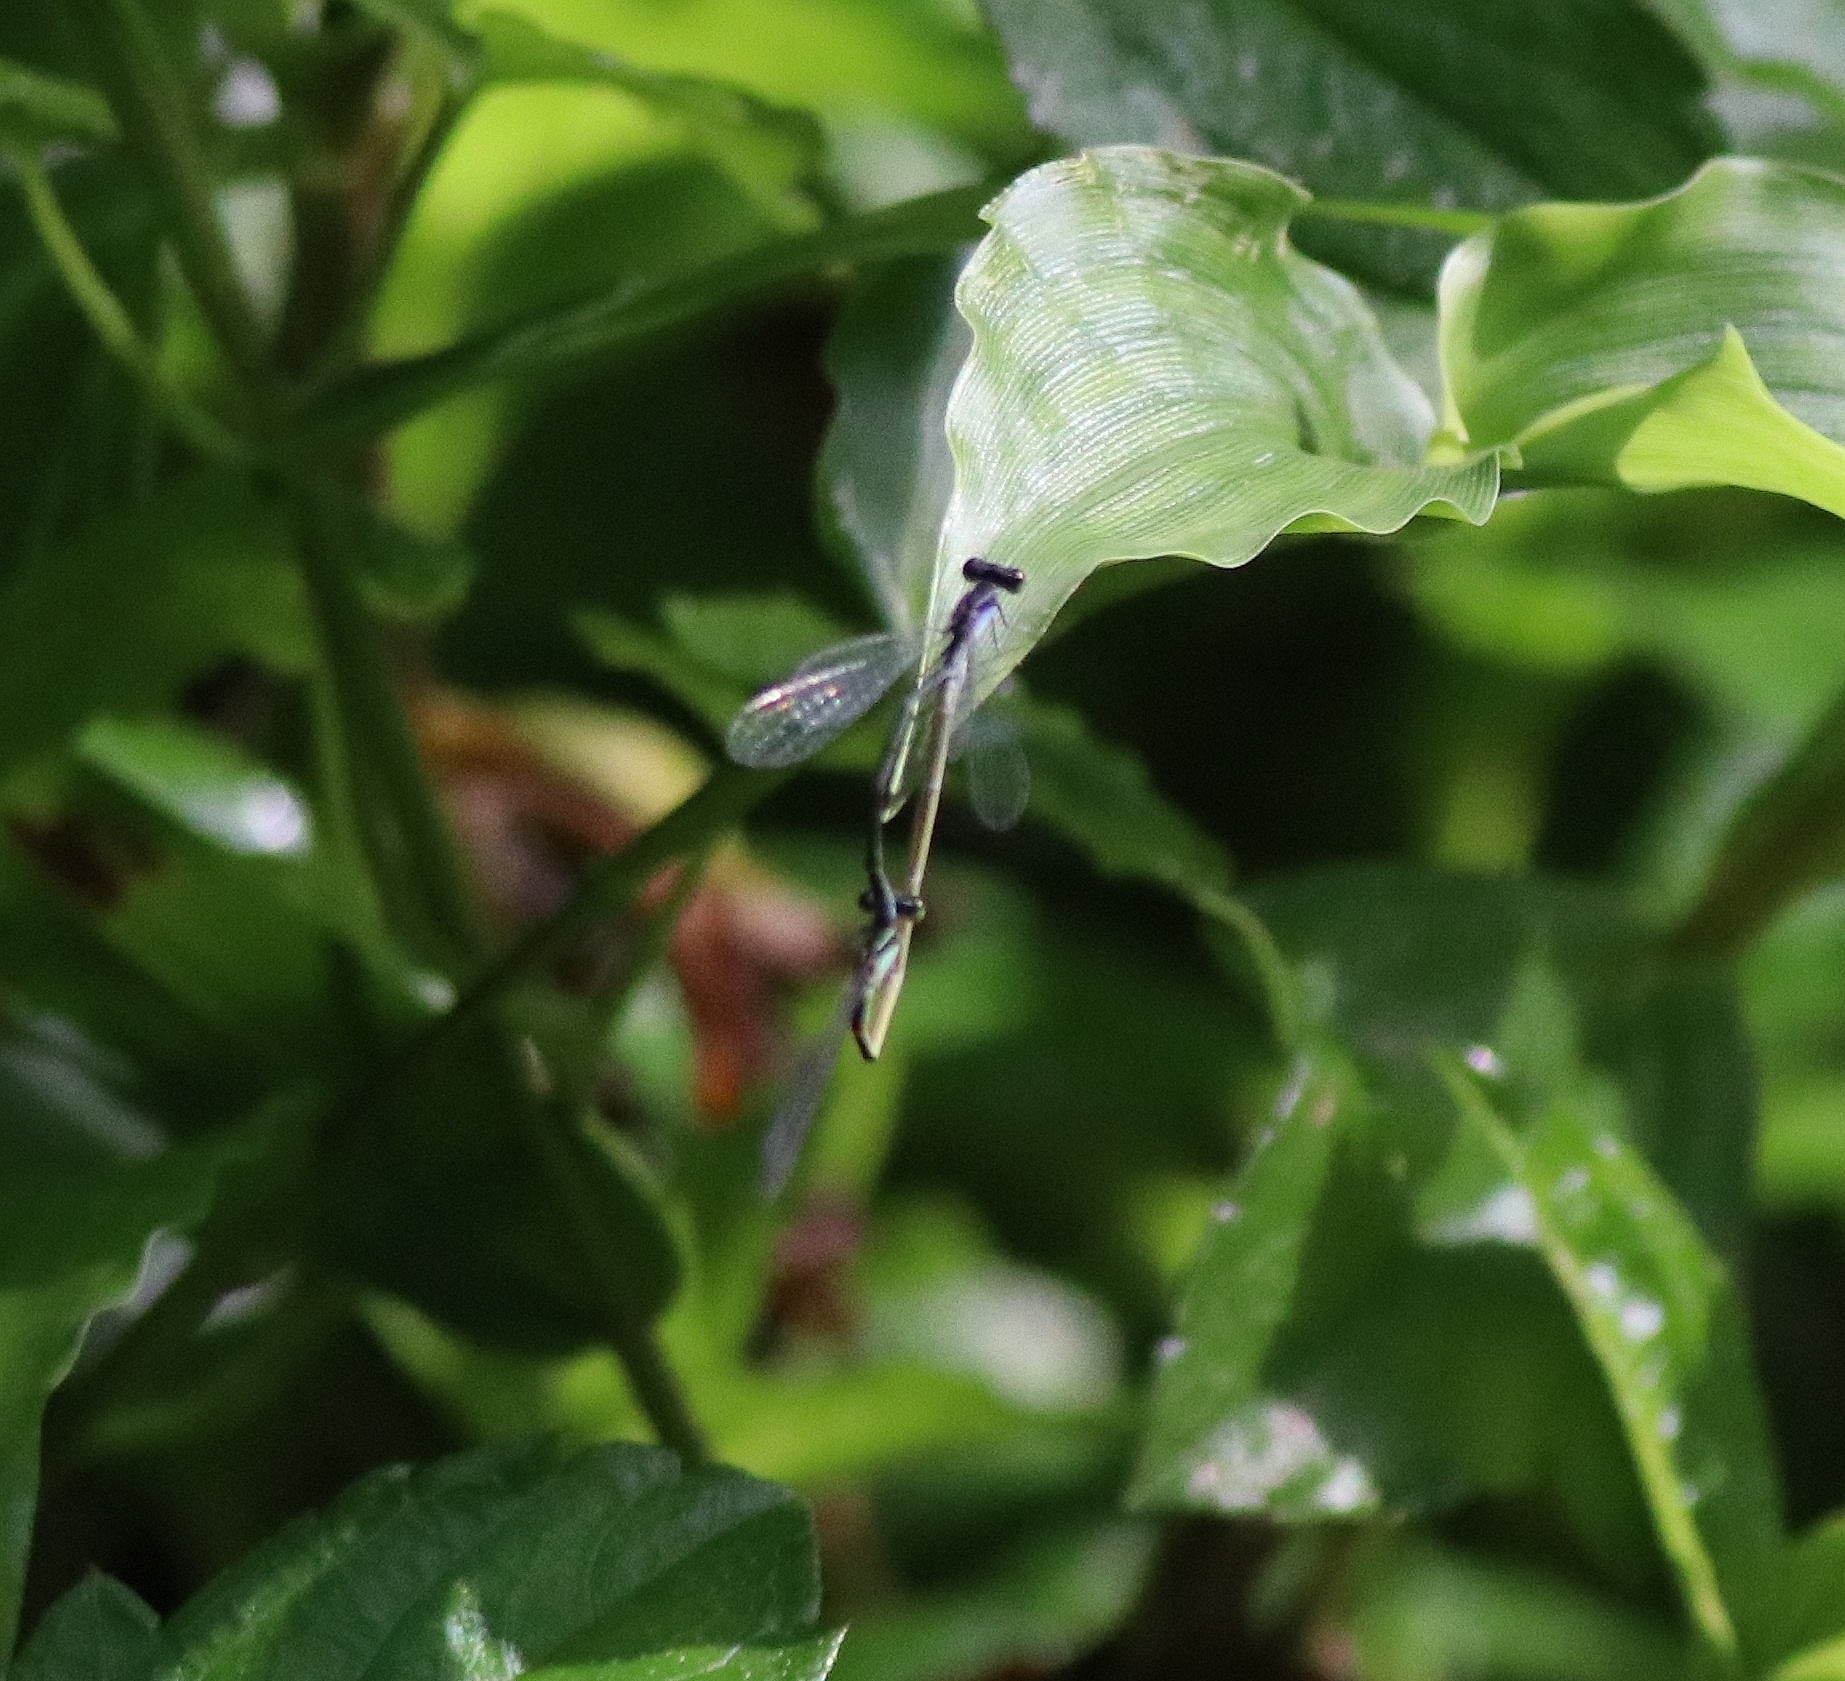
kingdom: Animalia
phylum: Arthropoda
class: Insecta
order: Odonata
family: Coenagrionidae
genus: Aciagrion
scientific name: Aciagrion approximans
